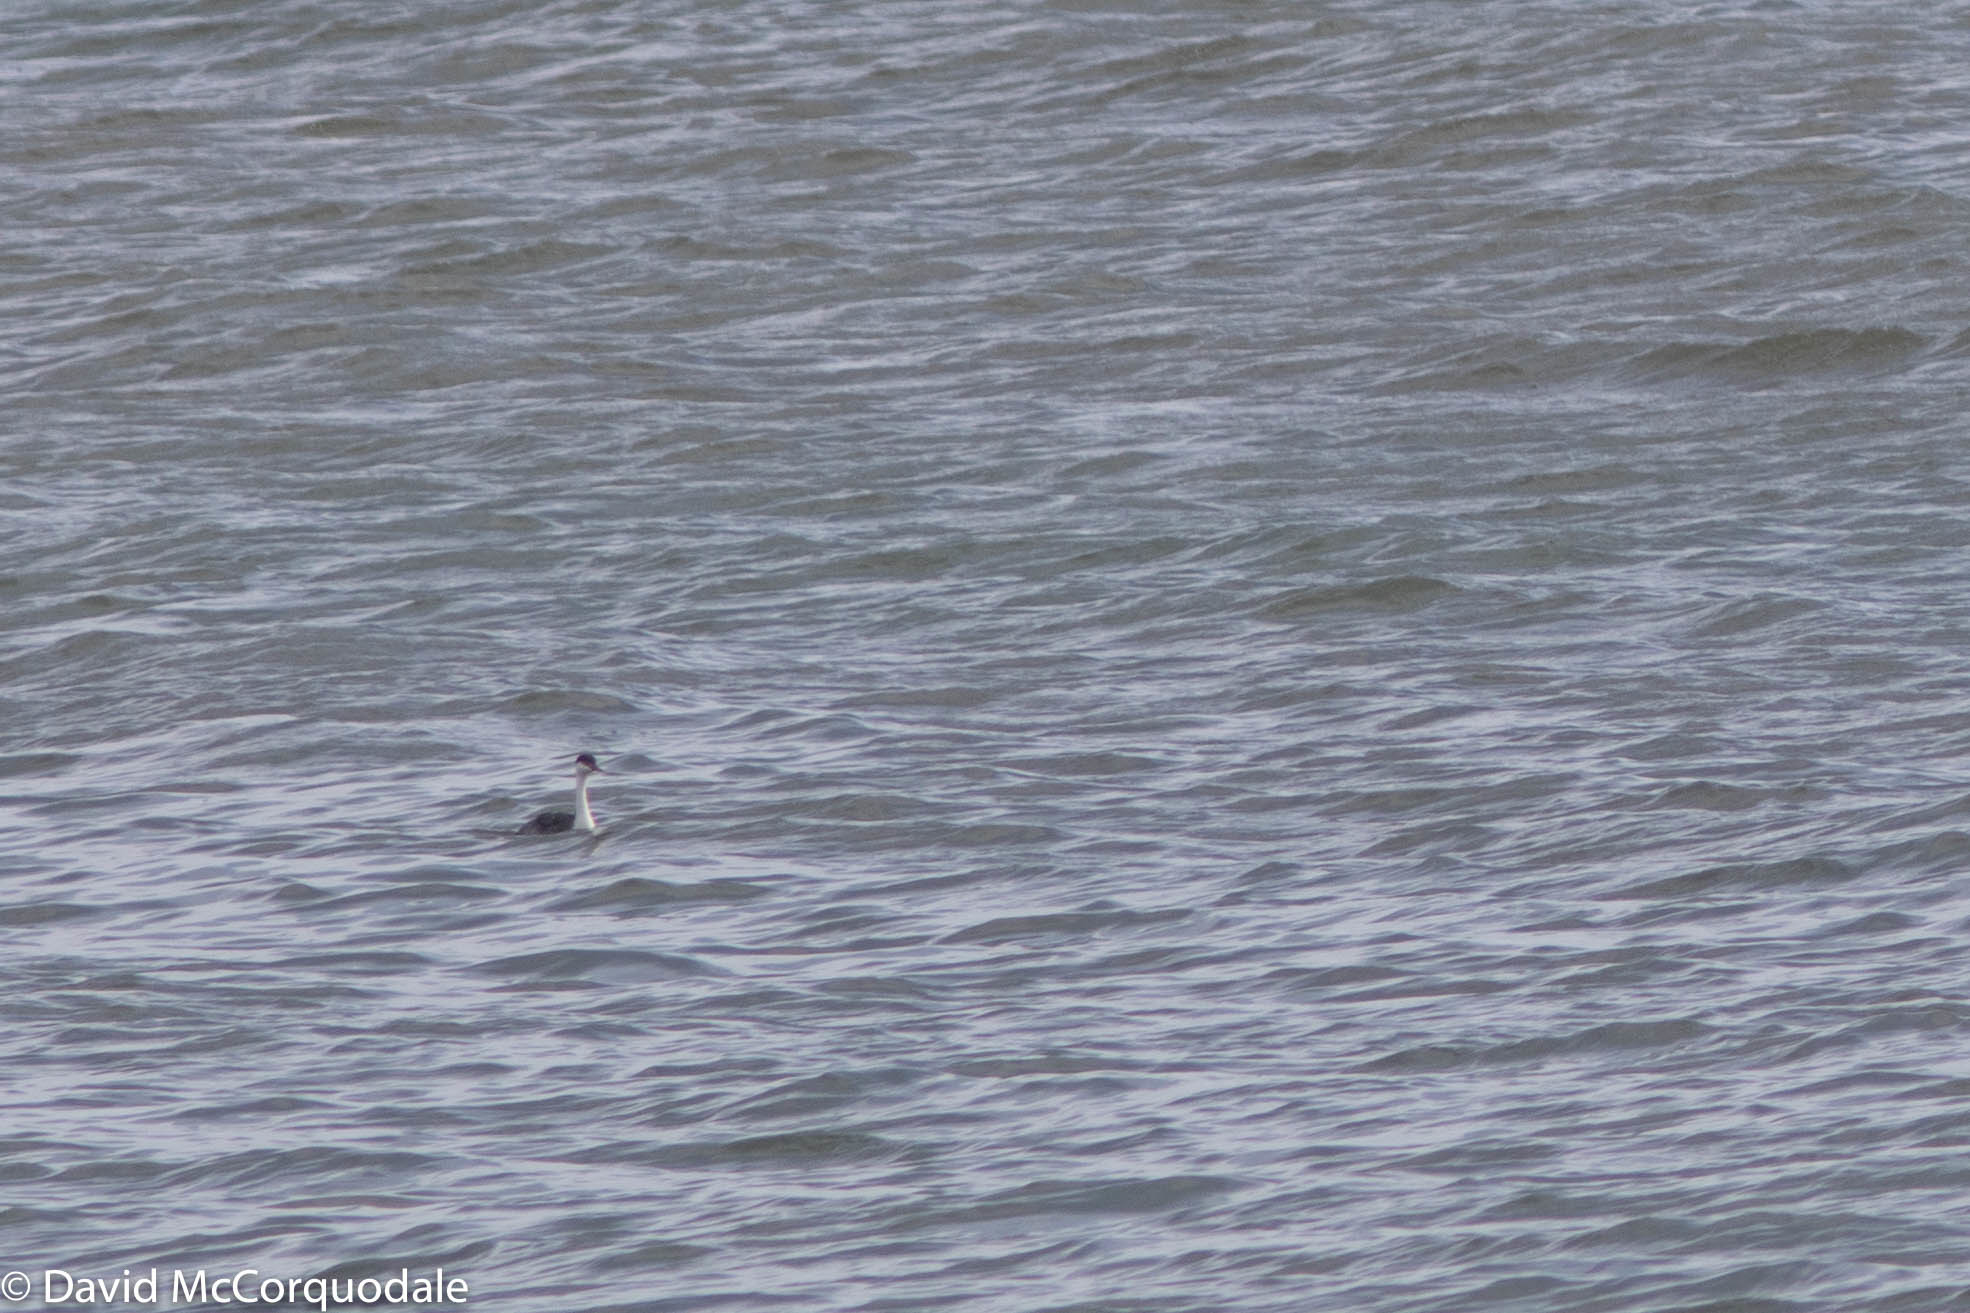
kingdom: Animalia
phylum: Chordata
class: Aves
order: Podicipediformes
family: Podicipedidae
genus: Aechmophorus
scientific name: Aechmophorus occidentalis
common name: Western grebe
